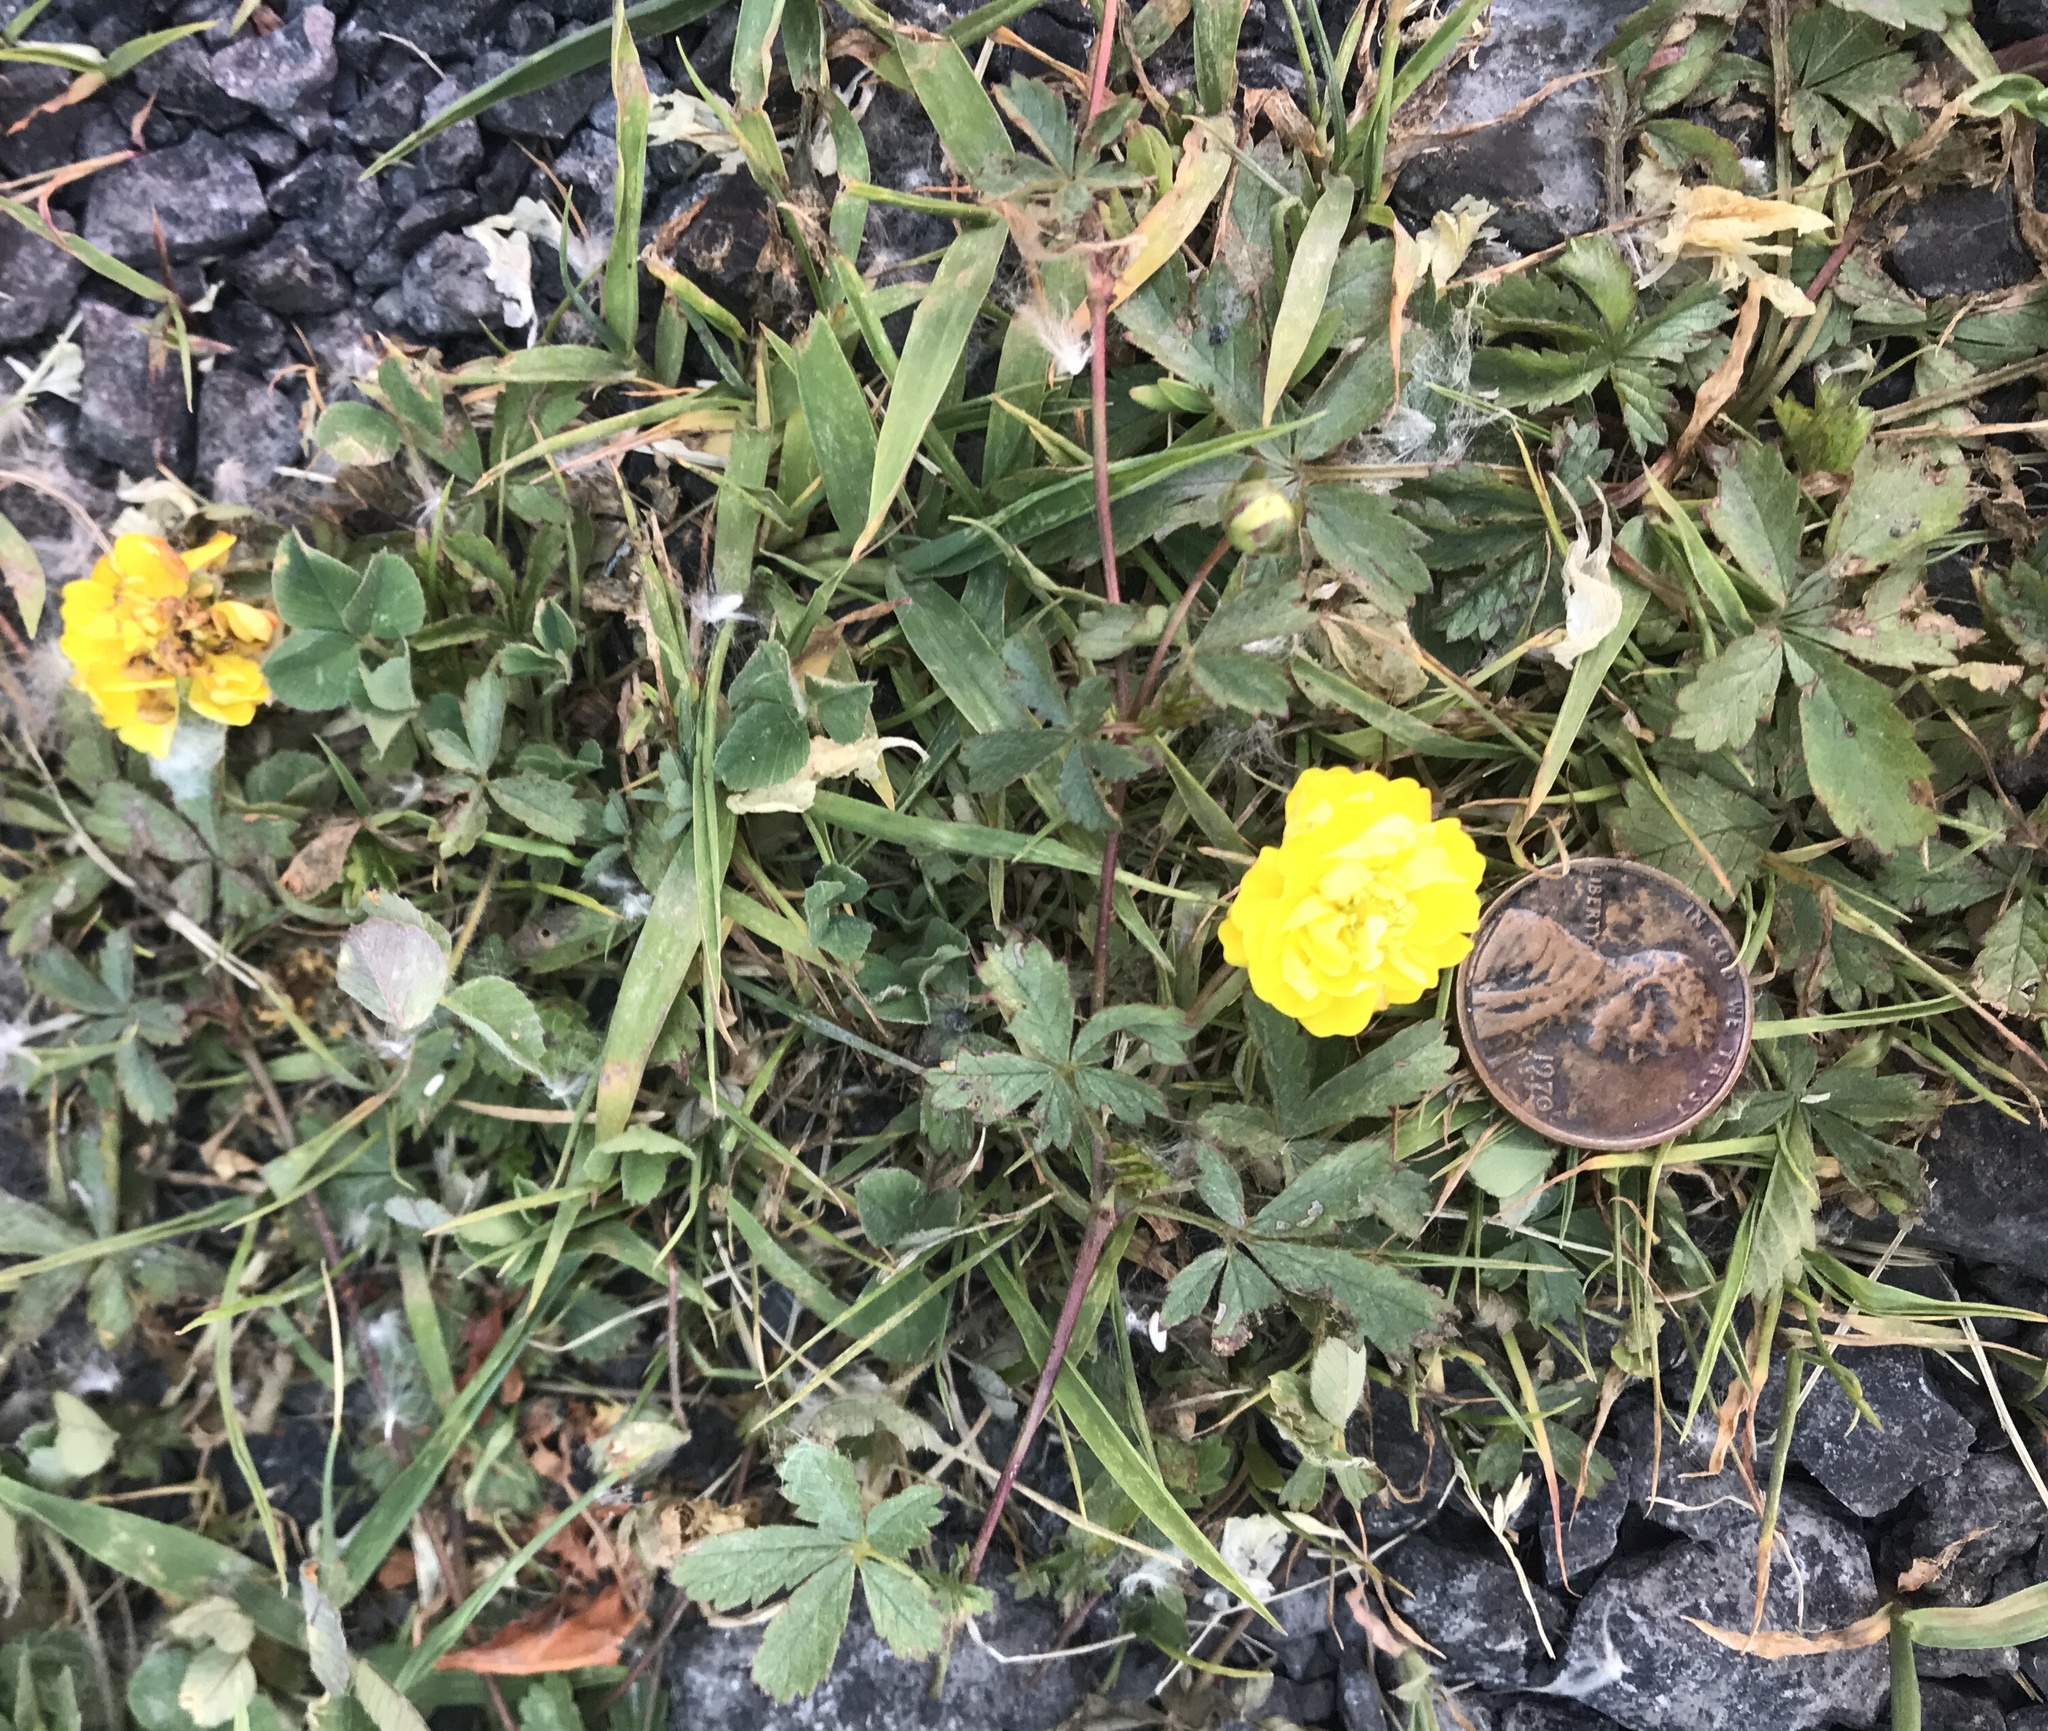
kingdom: Plantae
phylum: Tracheophyta
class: Magnoliopsida
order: Rosales
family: Rosaceae
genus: Potentilla
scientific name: Potentilla reptans
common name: Creeping cinquefoil
